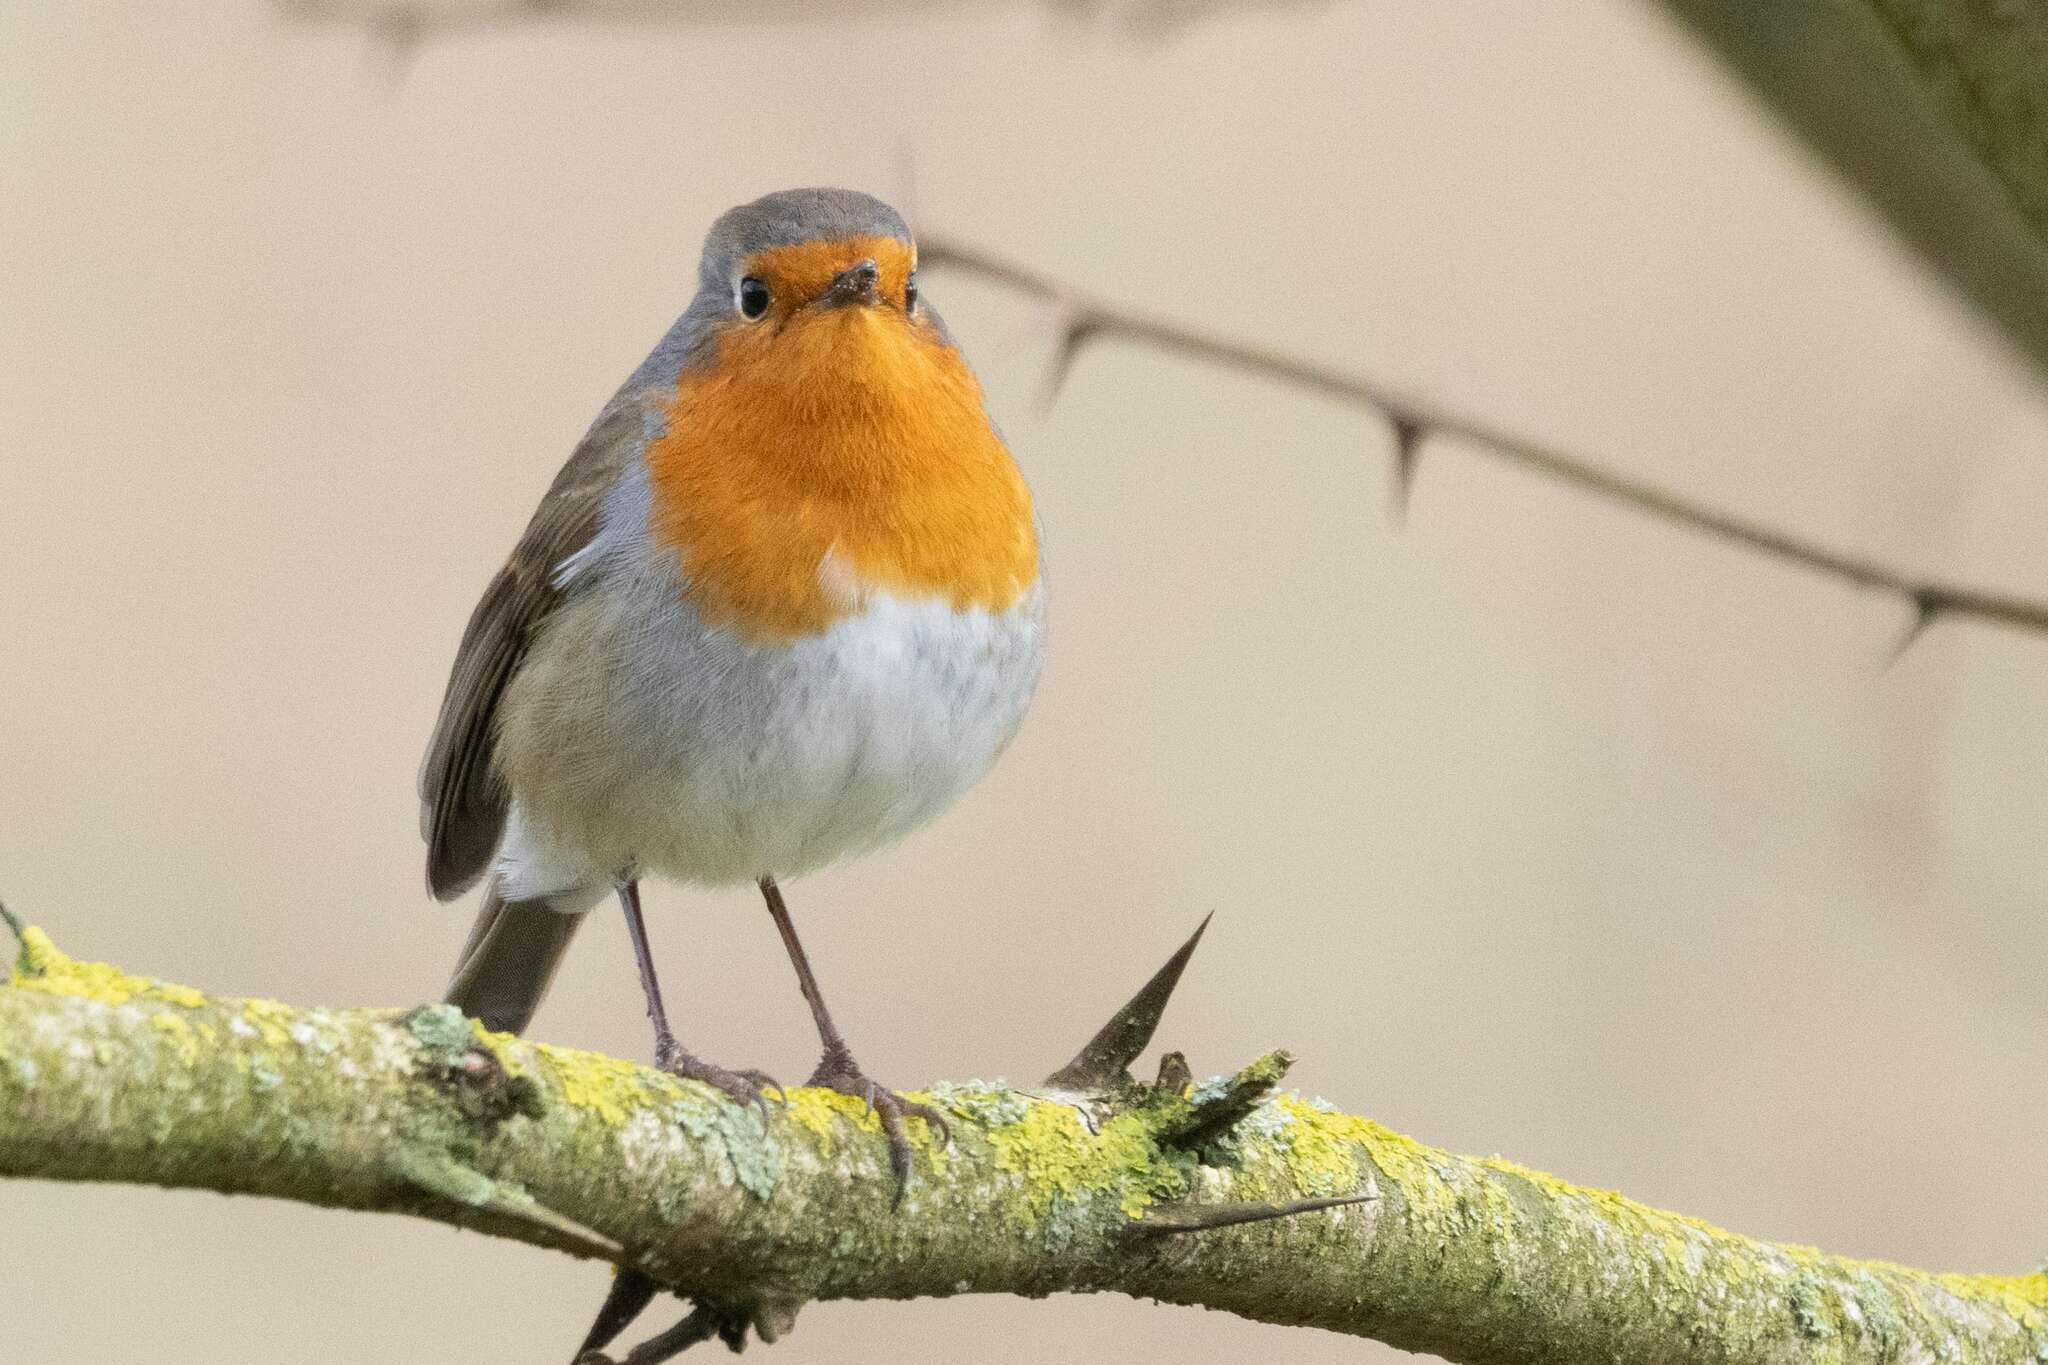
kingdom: Animalia
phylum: Chordata
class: Aves
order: Passeriformes
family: Muscicapidae
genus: Erithacus
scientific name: Erithacus rubecula
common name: European robin
